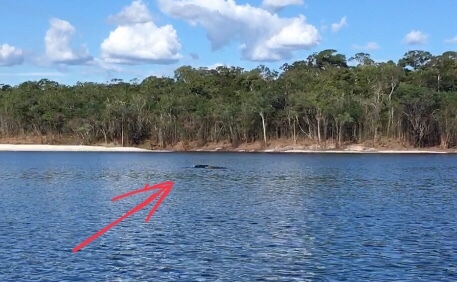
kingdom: Animalia
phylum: Chordata
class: Mammalia
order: Cetacea
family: Iniidae
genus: Inia
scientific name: Inia geoffrensis
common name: Amazon river dolphin
